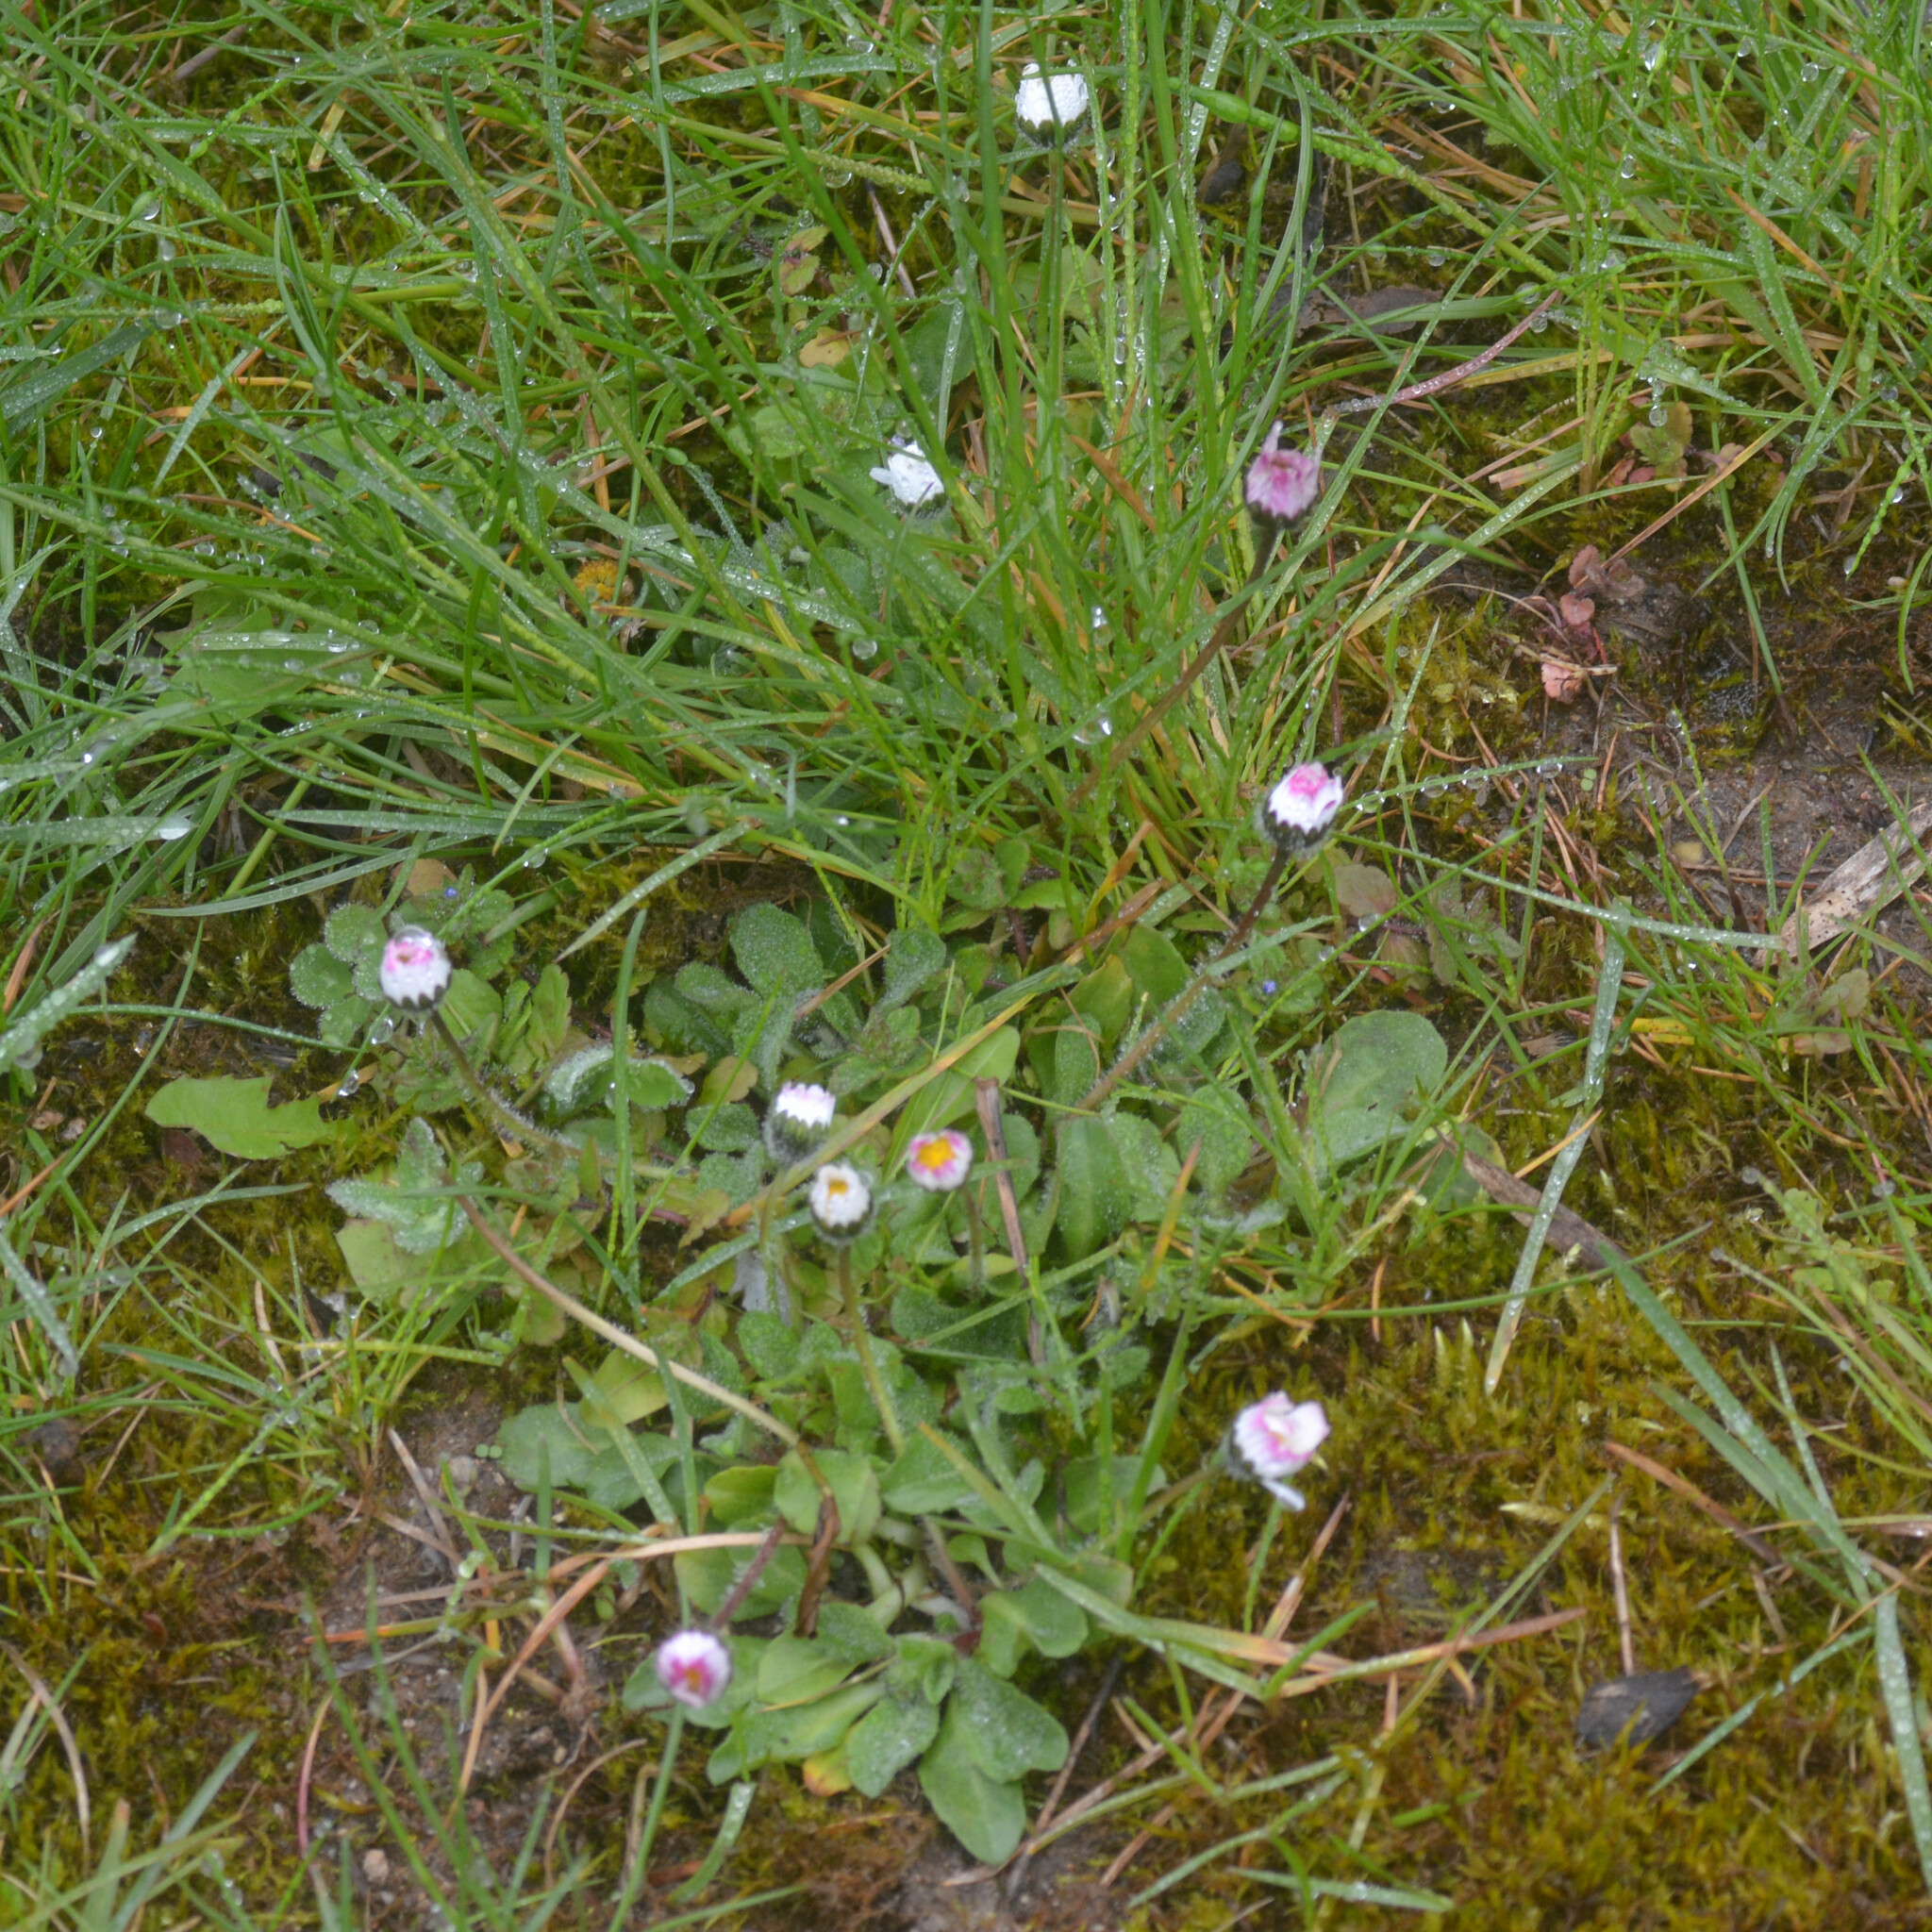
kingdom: Plantae
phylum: Tracheophyta
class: Magnoliopsida
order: Asterales
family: Asteraceae
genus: Bellis
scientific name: Bellis perennis
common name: Lawndaisy
